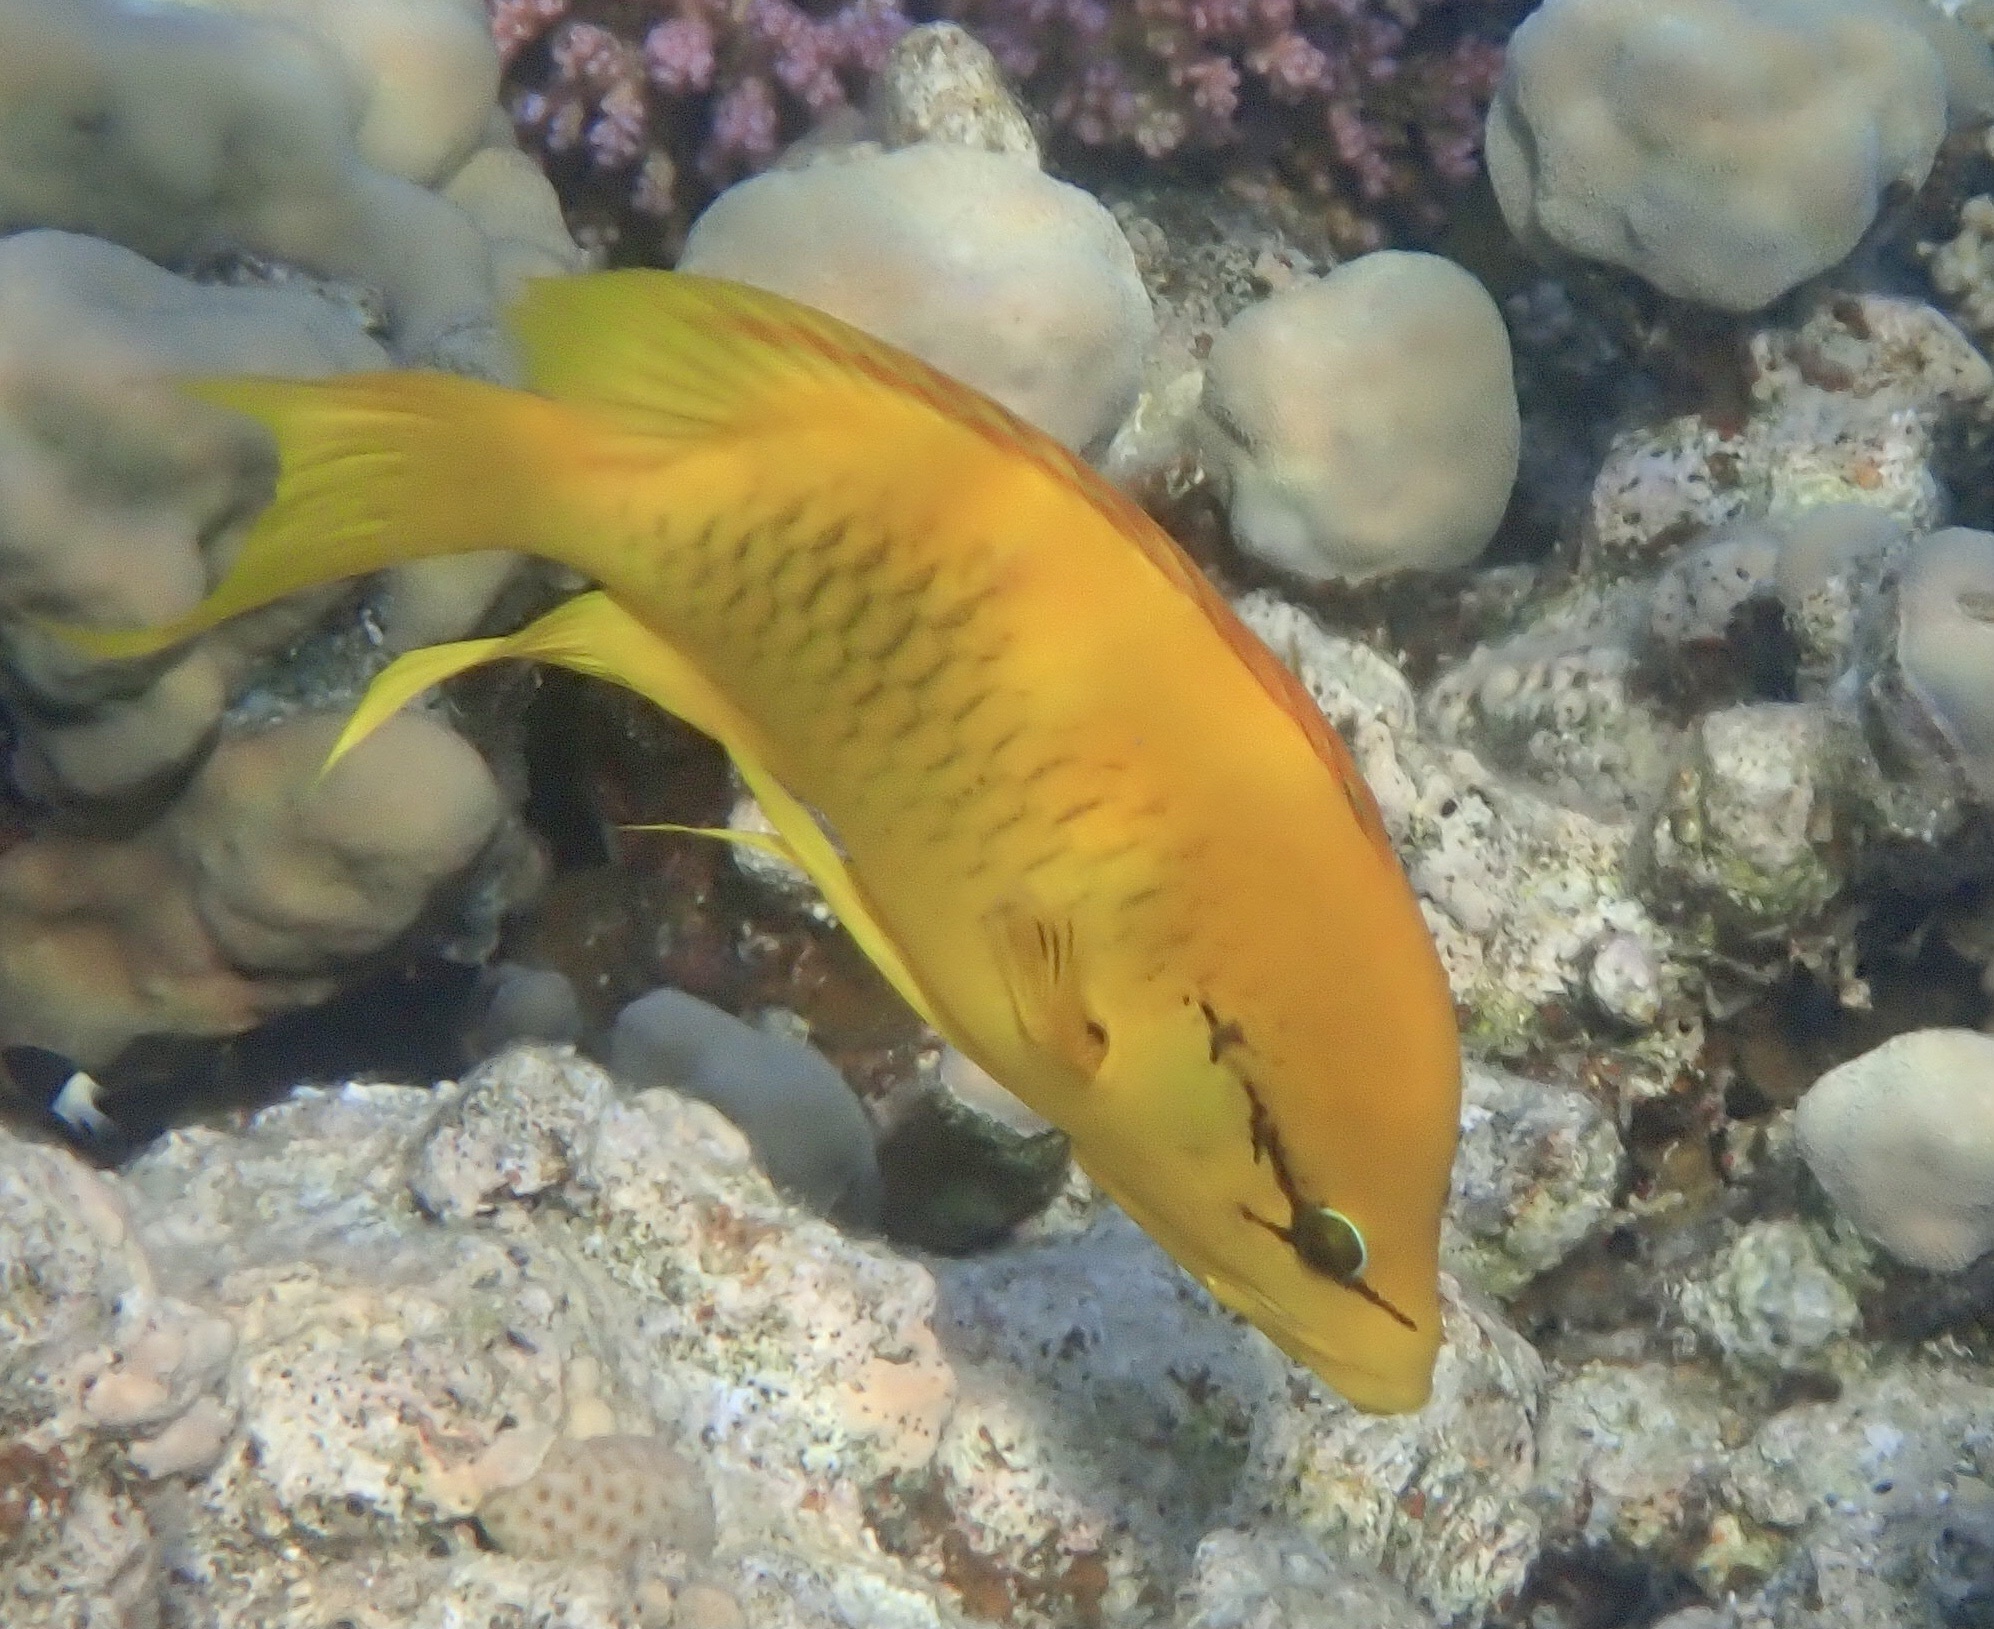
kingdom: Animalia
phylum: Chordata
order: Perciformes
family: Labridae
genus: Epibulus
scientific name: Epibulus insidiator
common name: Slingjaw wrasse
